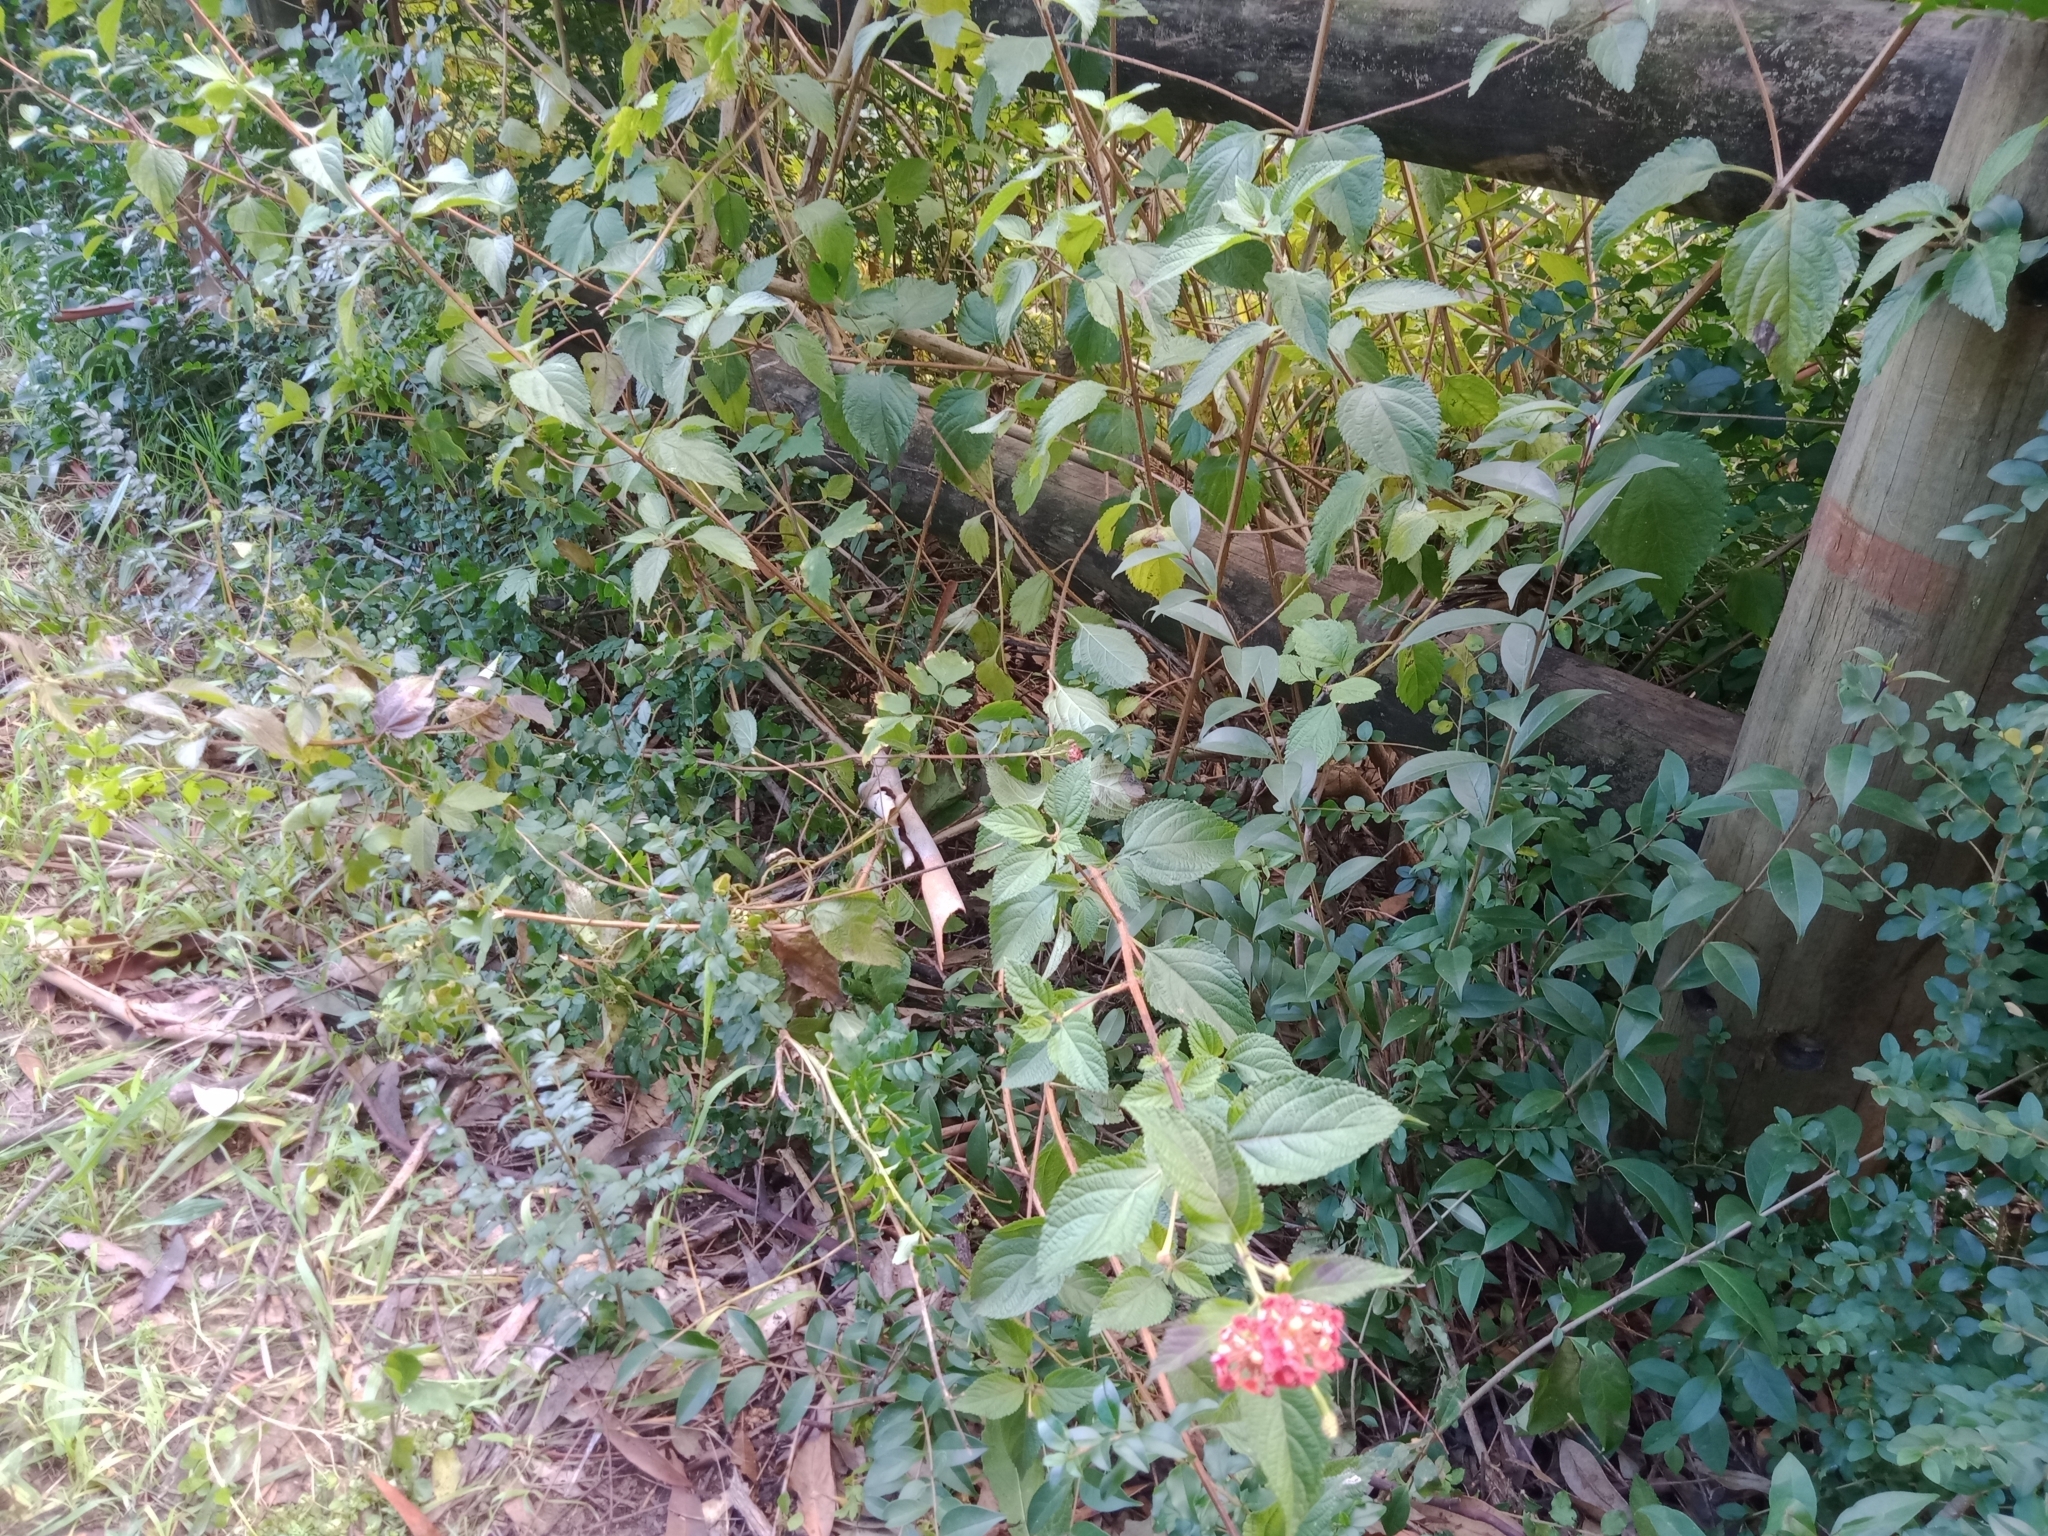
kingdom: Plantae
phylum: Tracheophyta
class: Magnoliopsida
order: Lamiales
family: Verbenaceae
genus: Lantana
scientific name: Lantana camara
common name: Lantana
